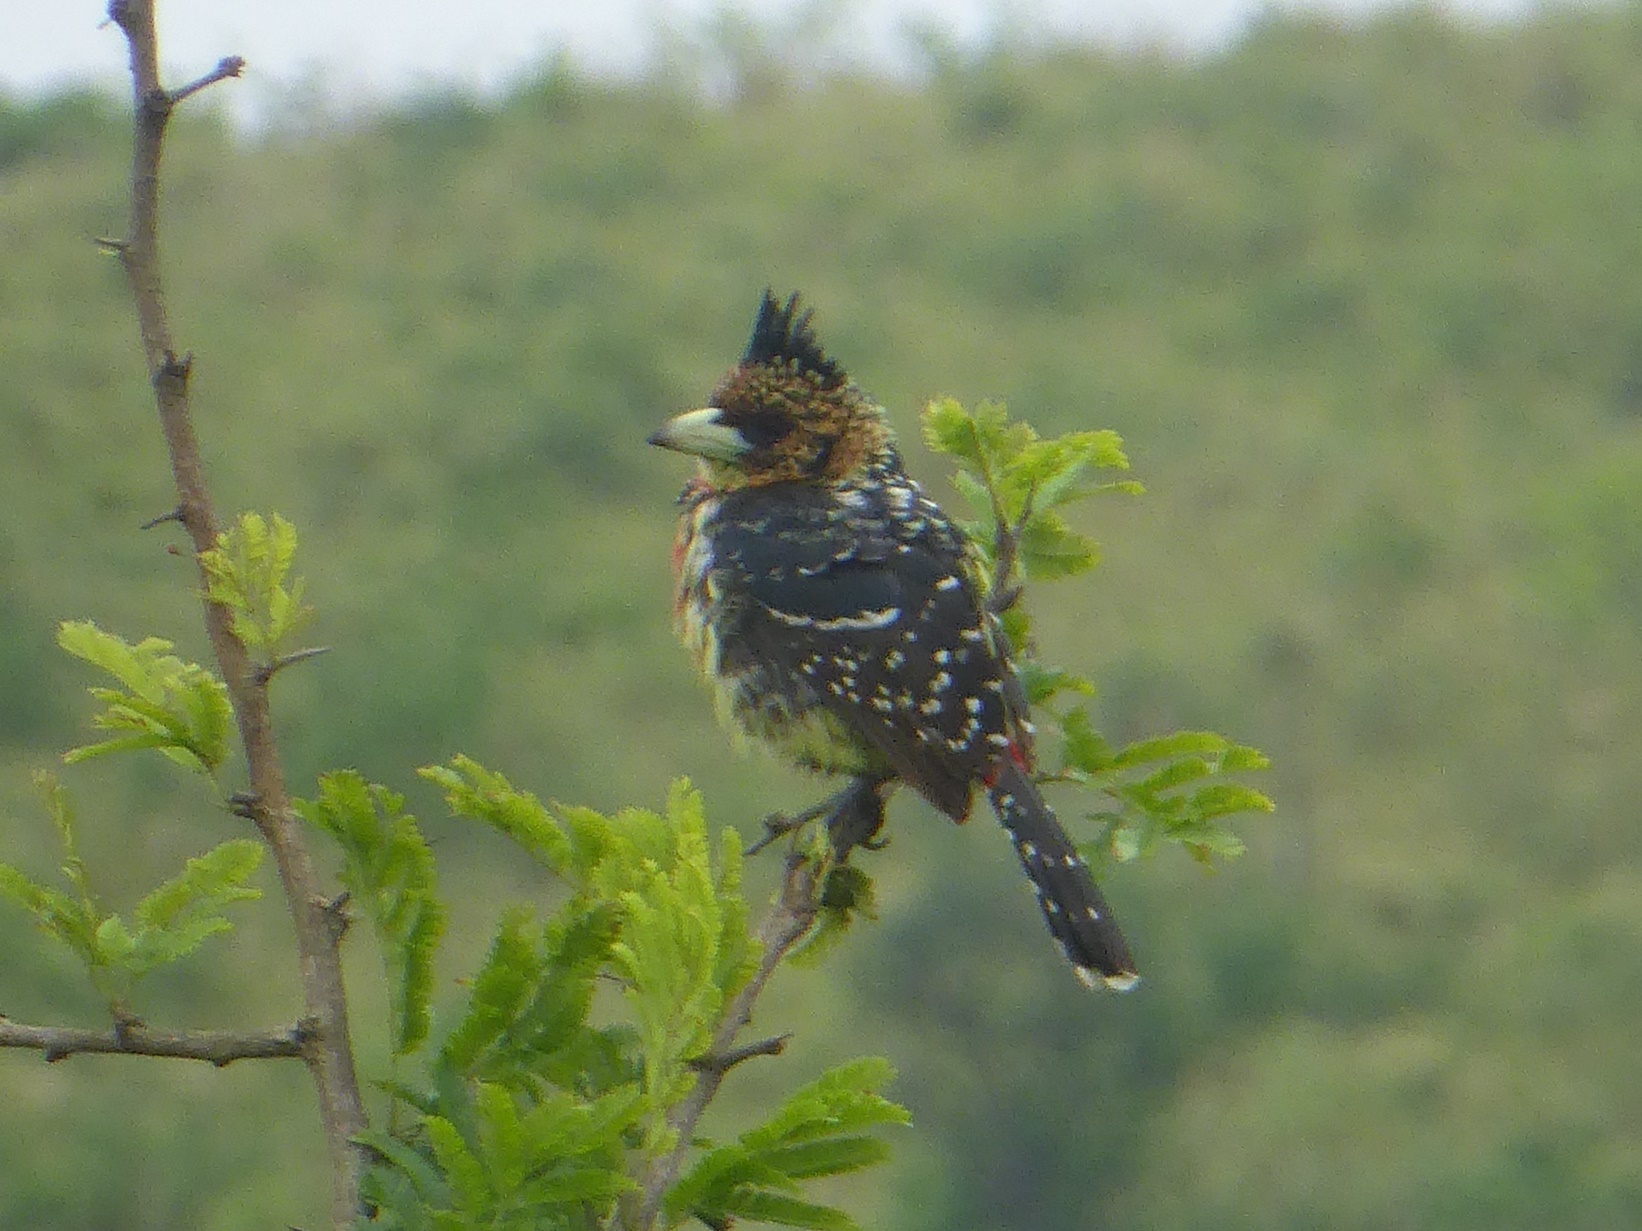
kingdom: Animalia
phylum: Chordata
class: Aves
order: Piciformes
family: Lybiidae
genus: Trachyphonus
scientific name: Trachyphonus vaillantii
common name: Crested barbet
